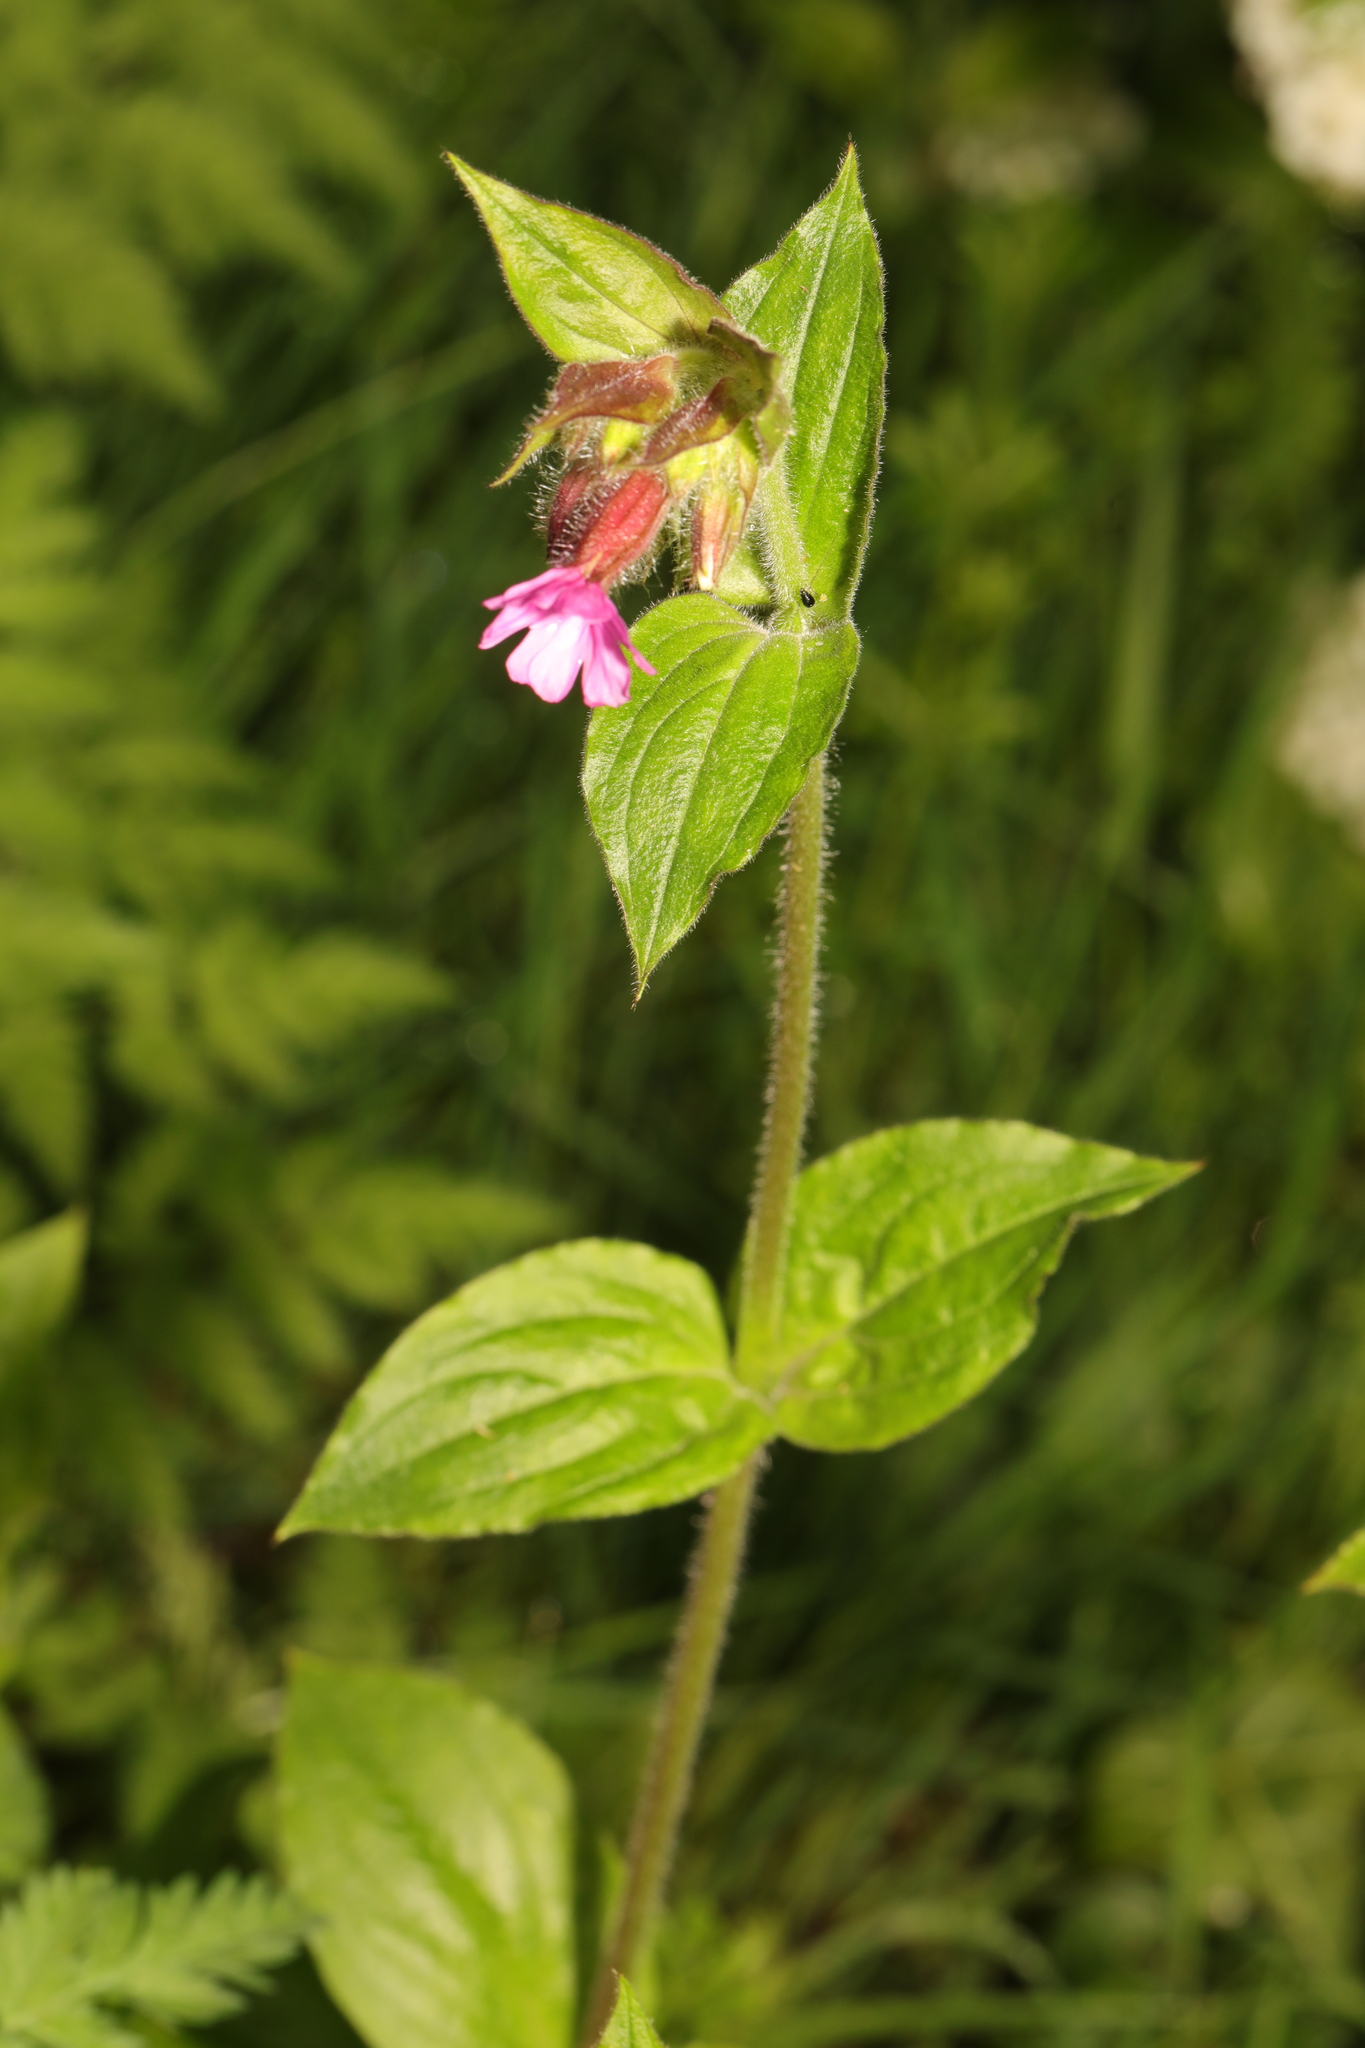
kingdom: Plantae
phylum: Tracheophyta
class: Magnoliopsida
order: Caryophyllales
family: Caryophyllaceae
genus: Silene
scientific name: Silene dioica
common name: Red campion
